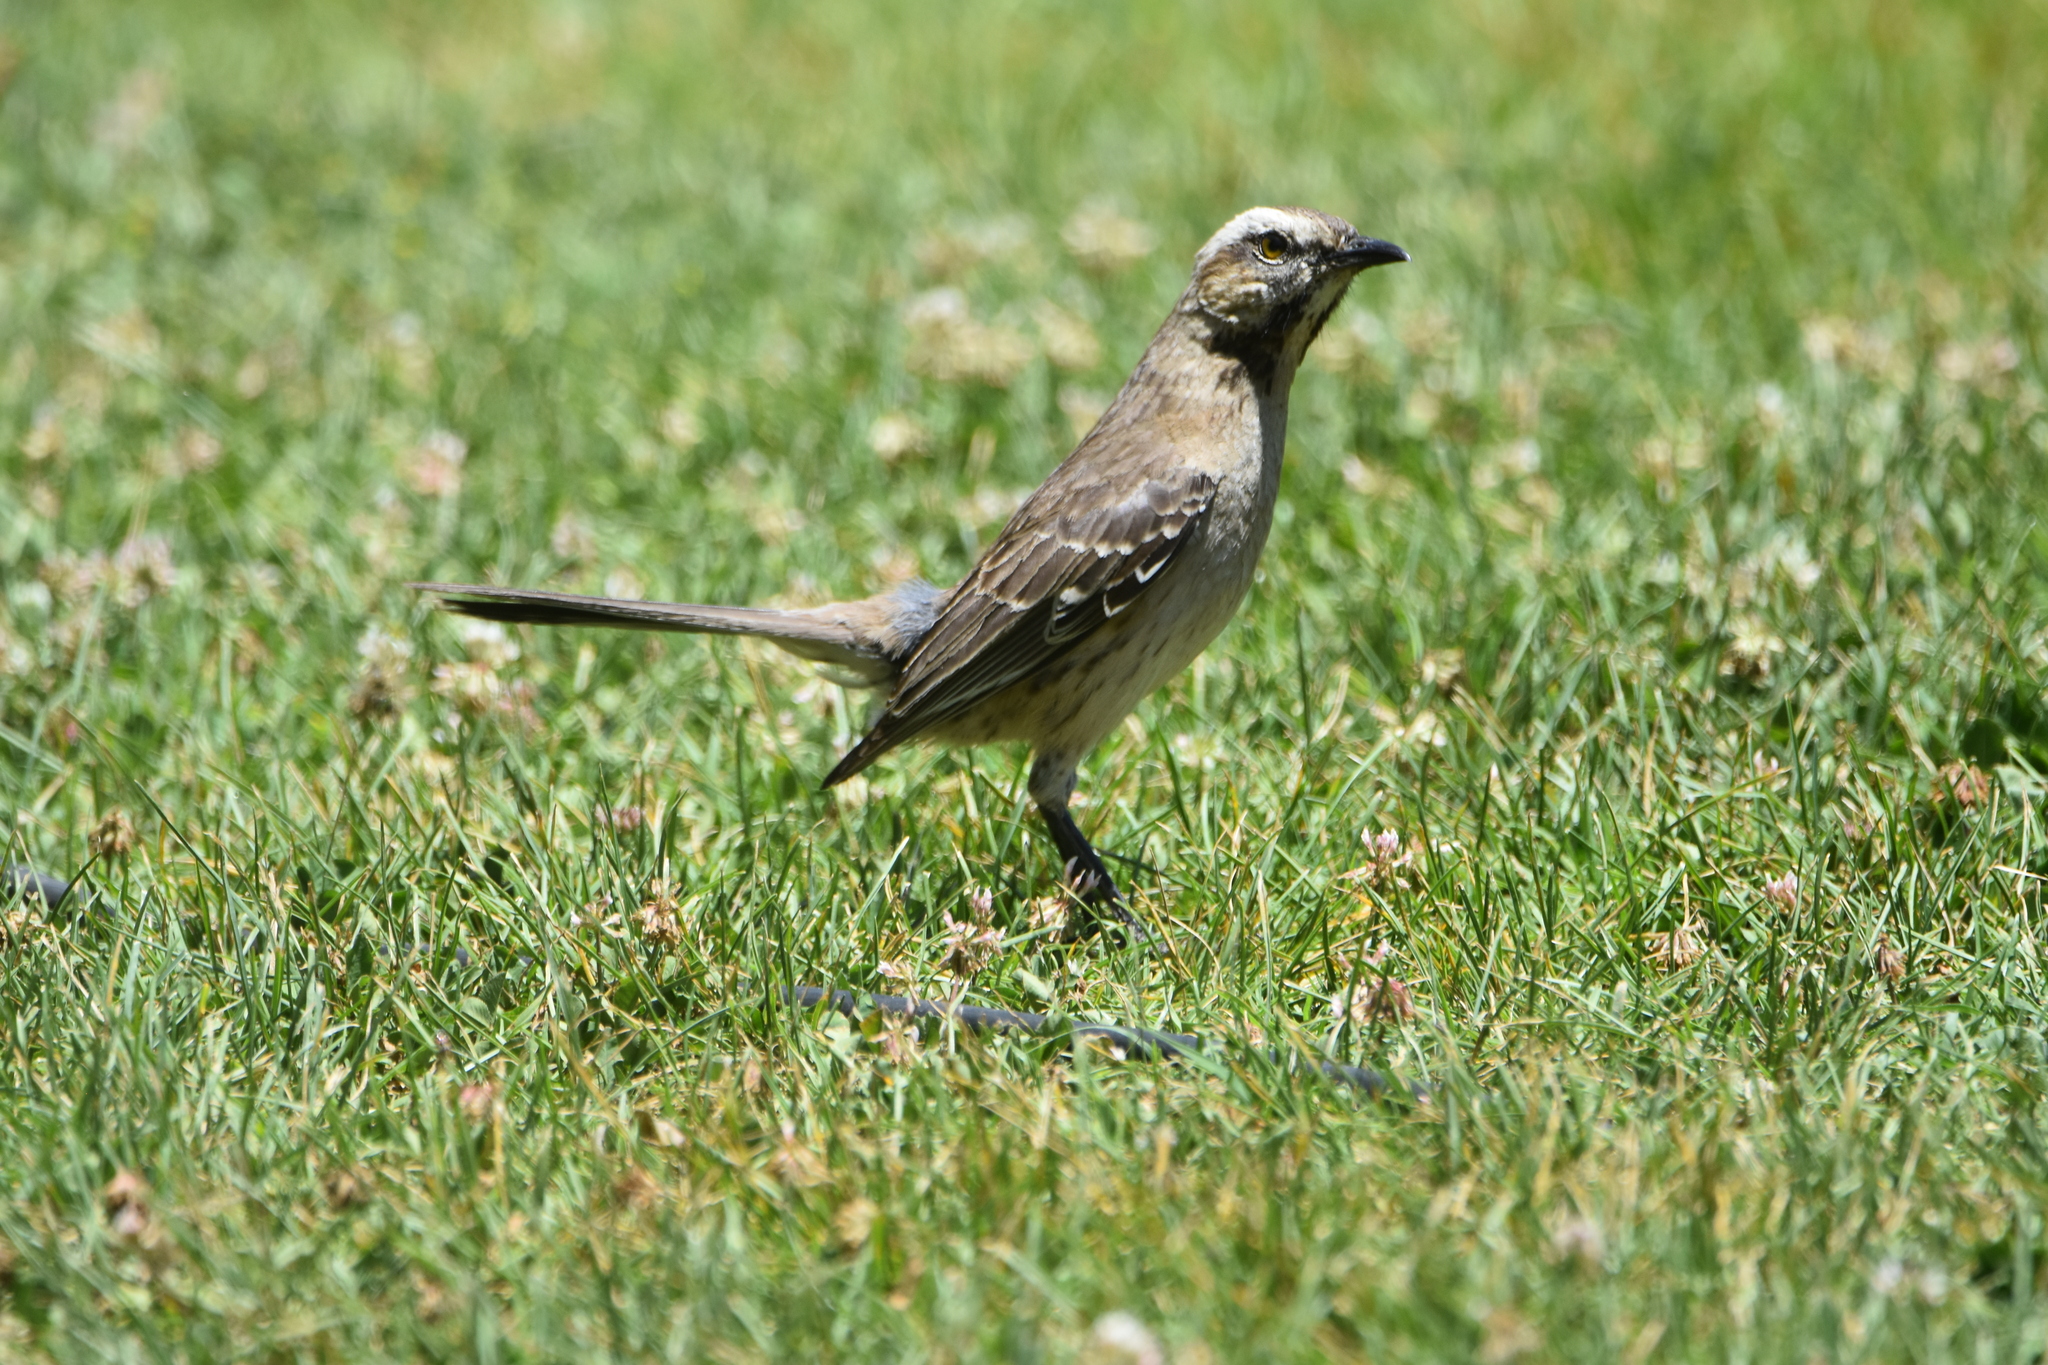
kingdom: Animalia
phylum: Chordata
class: Aves
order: Passeriformes
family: Mimidae
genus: Mimus
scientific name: Mimus thenca
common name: Chilean mockingbird
